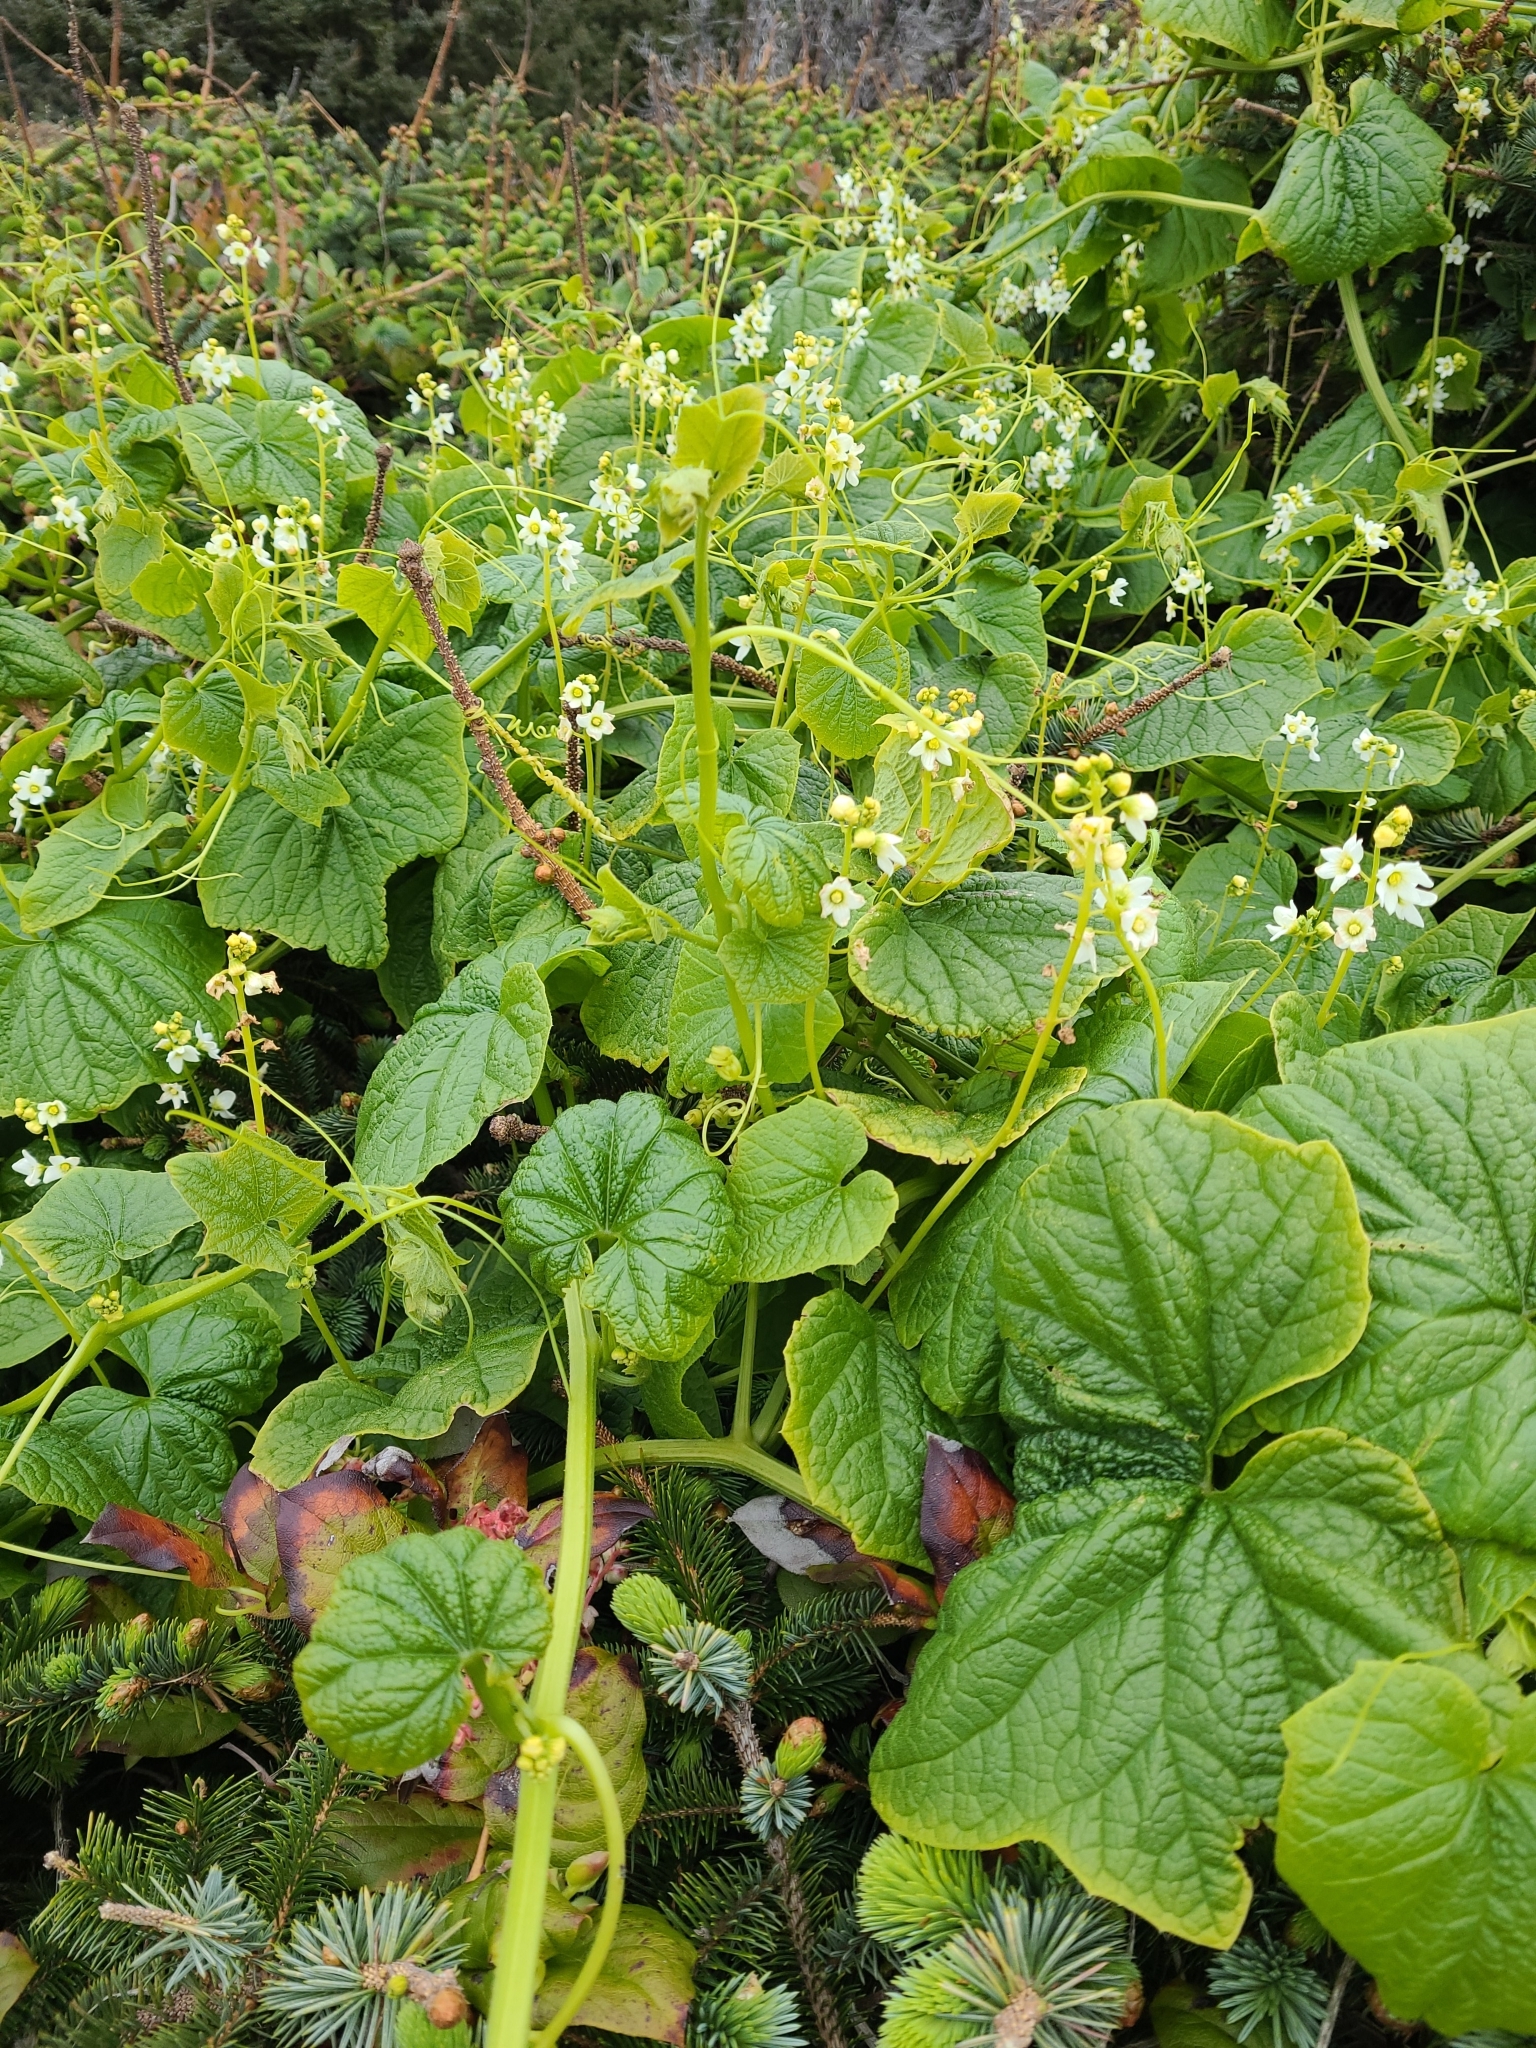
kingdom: Plantae
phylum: Tracheophyta
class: Magnoliopsida
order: Cucurbitales
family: Cucurbitaceae
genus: Marah
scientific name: Marah oregana
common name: Coastal manroot
